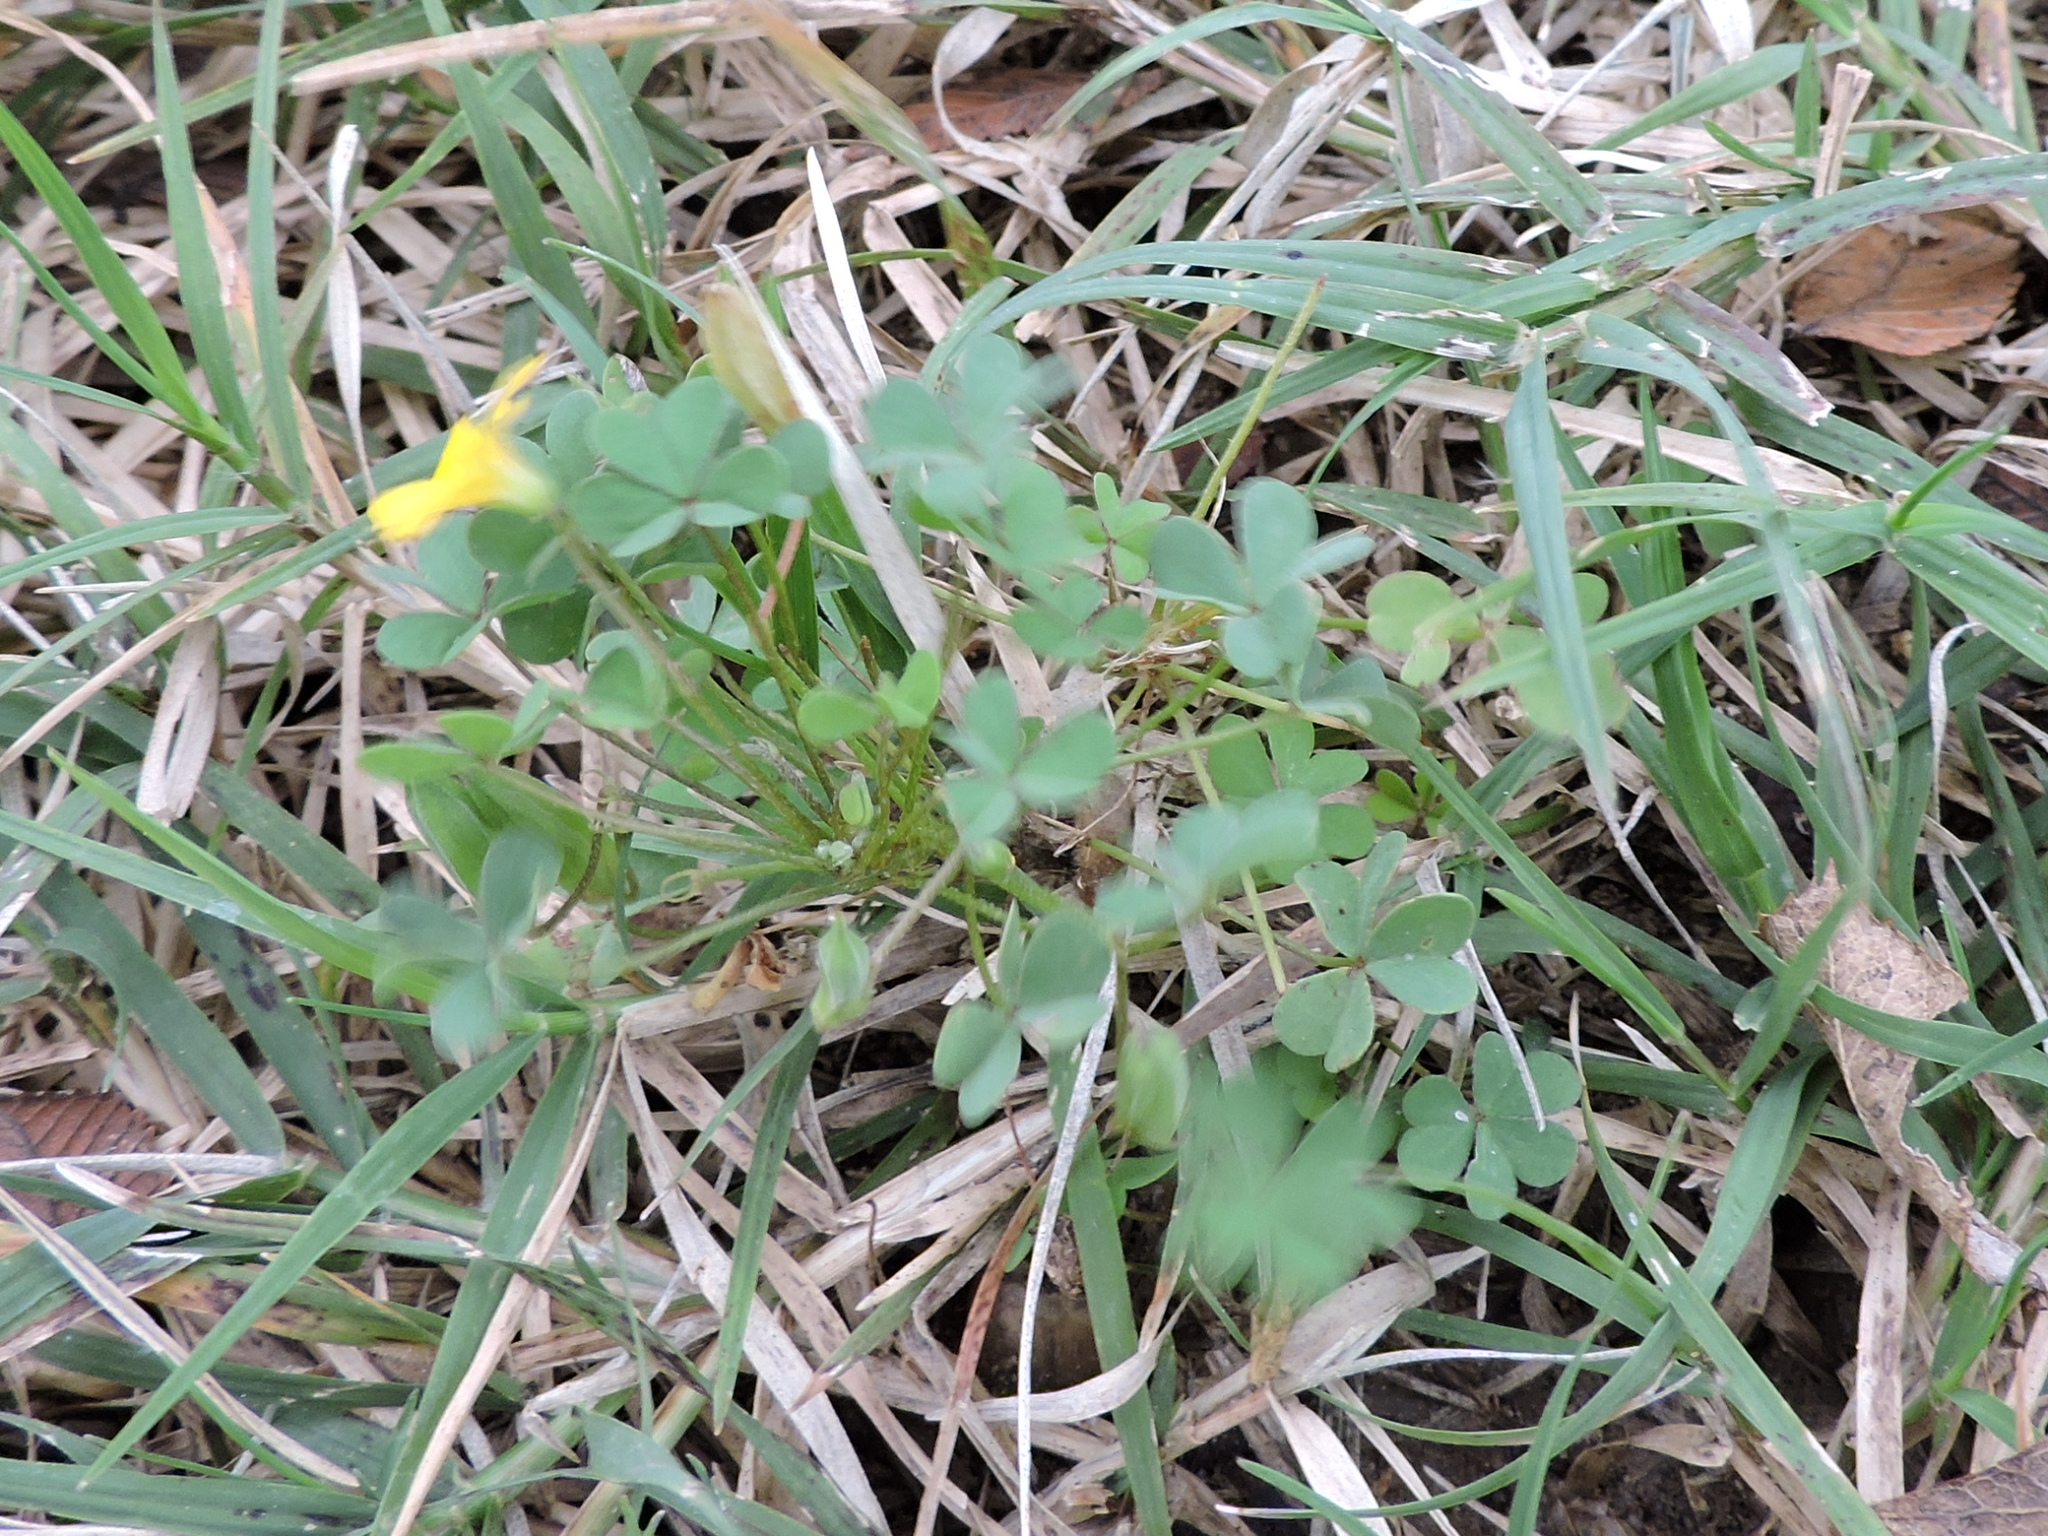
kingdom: Plantae
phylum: Tracheophyta
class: Magnoliopsida
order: Oxalidales
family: Oxalidaceae
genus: Oxalis
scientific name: Oxalis dillenii
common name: Sussex yellow-sorrel
